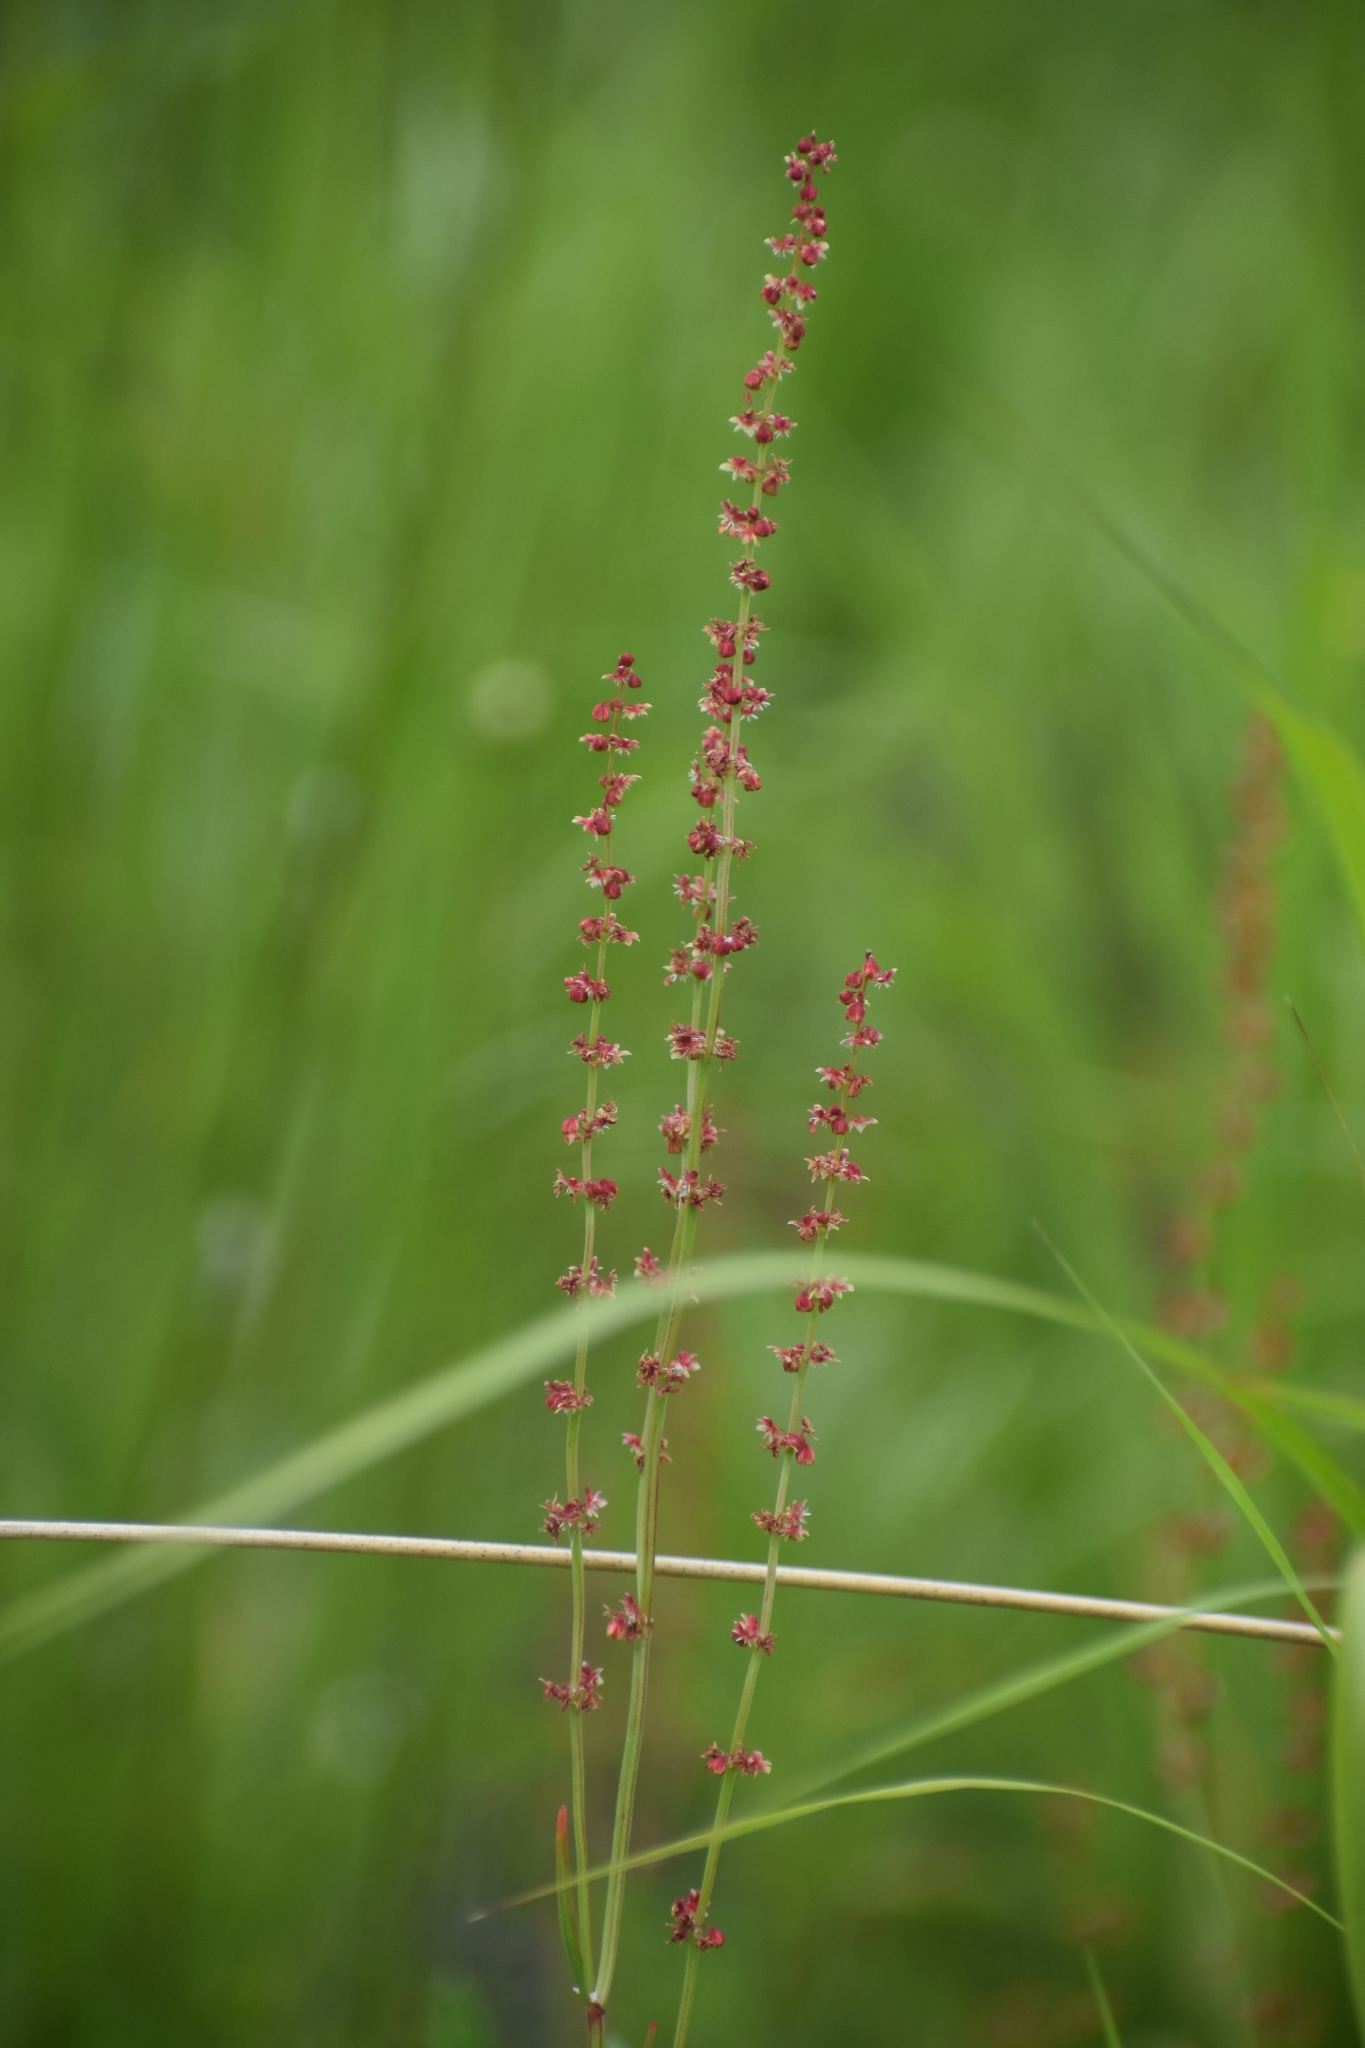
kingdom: Plantae
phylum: Tracheophyta
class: Magnoliopsida
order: Caryophyllales
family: Polygonaceae
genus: Rumex
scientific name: Rumex acetosella
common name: Common sheep sorrel
